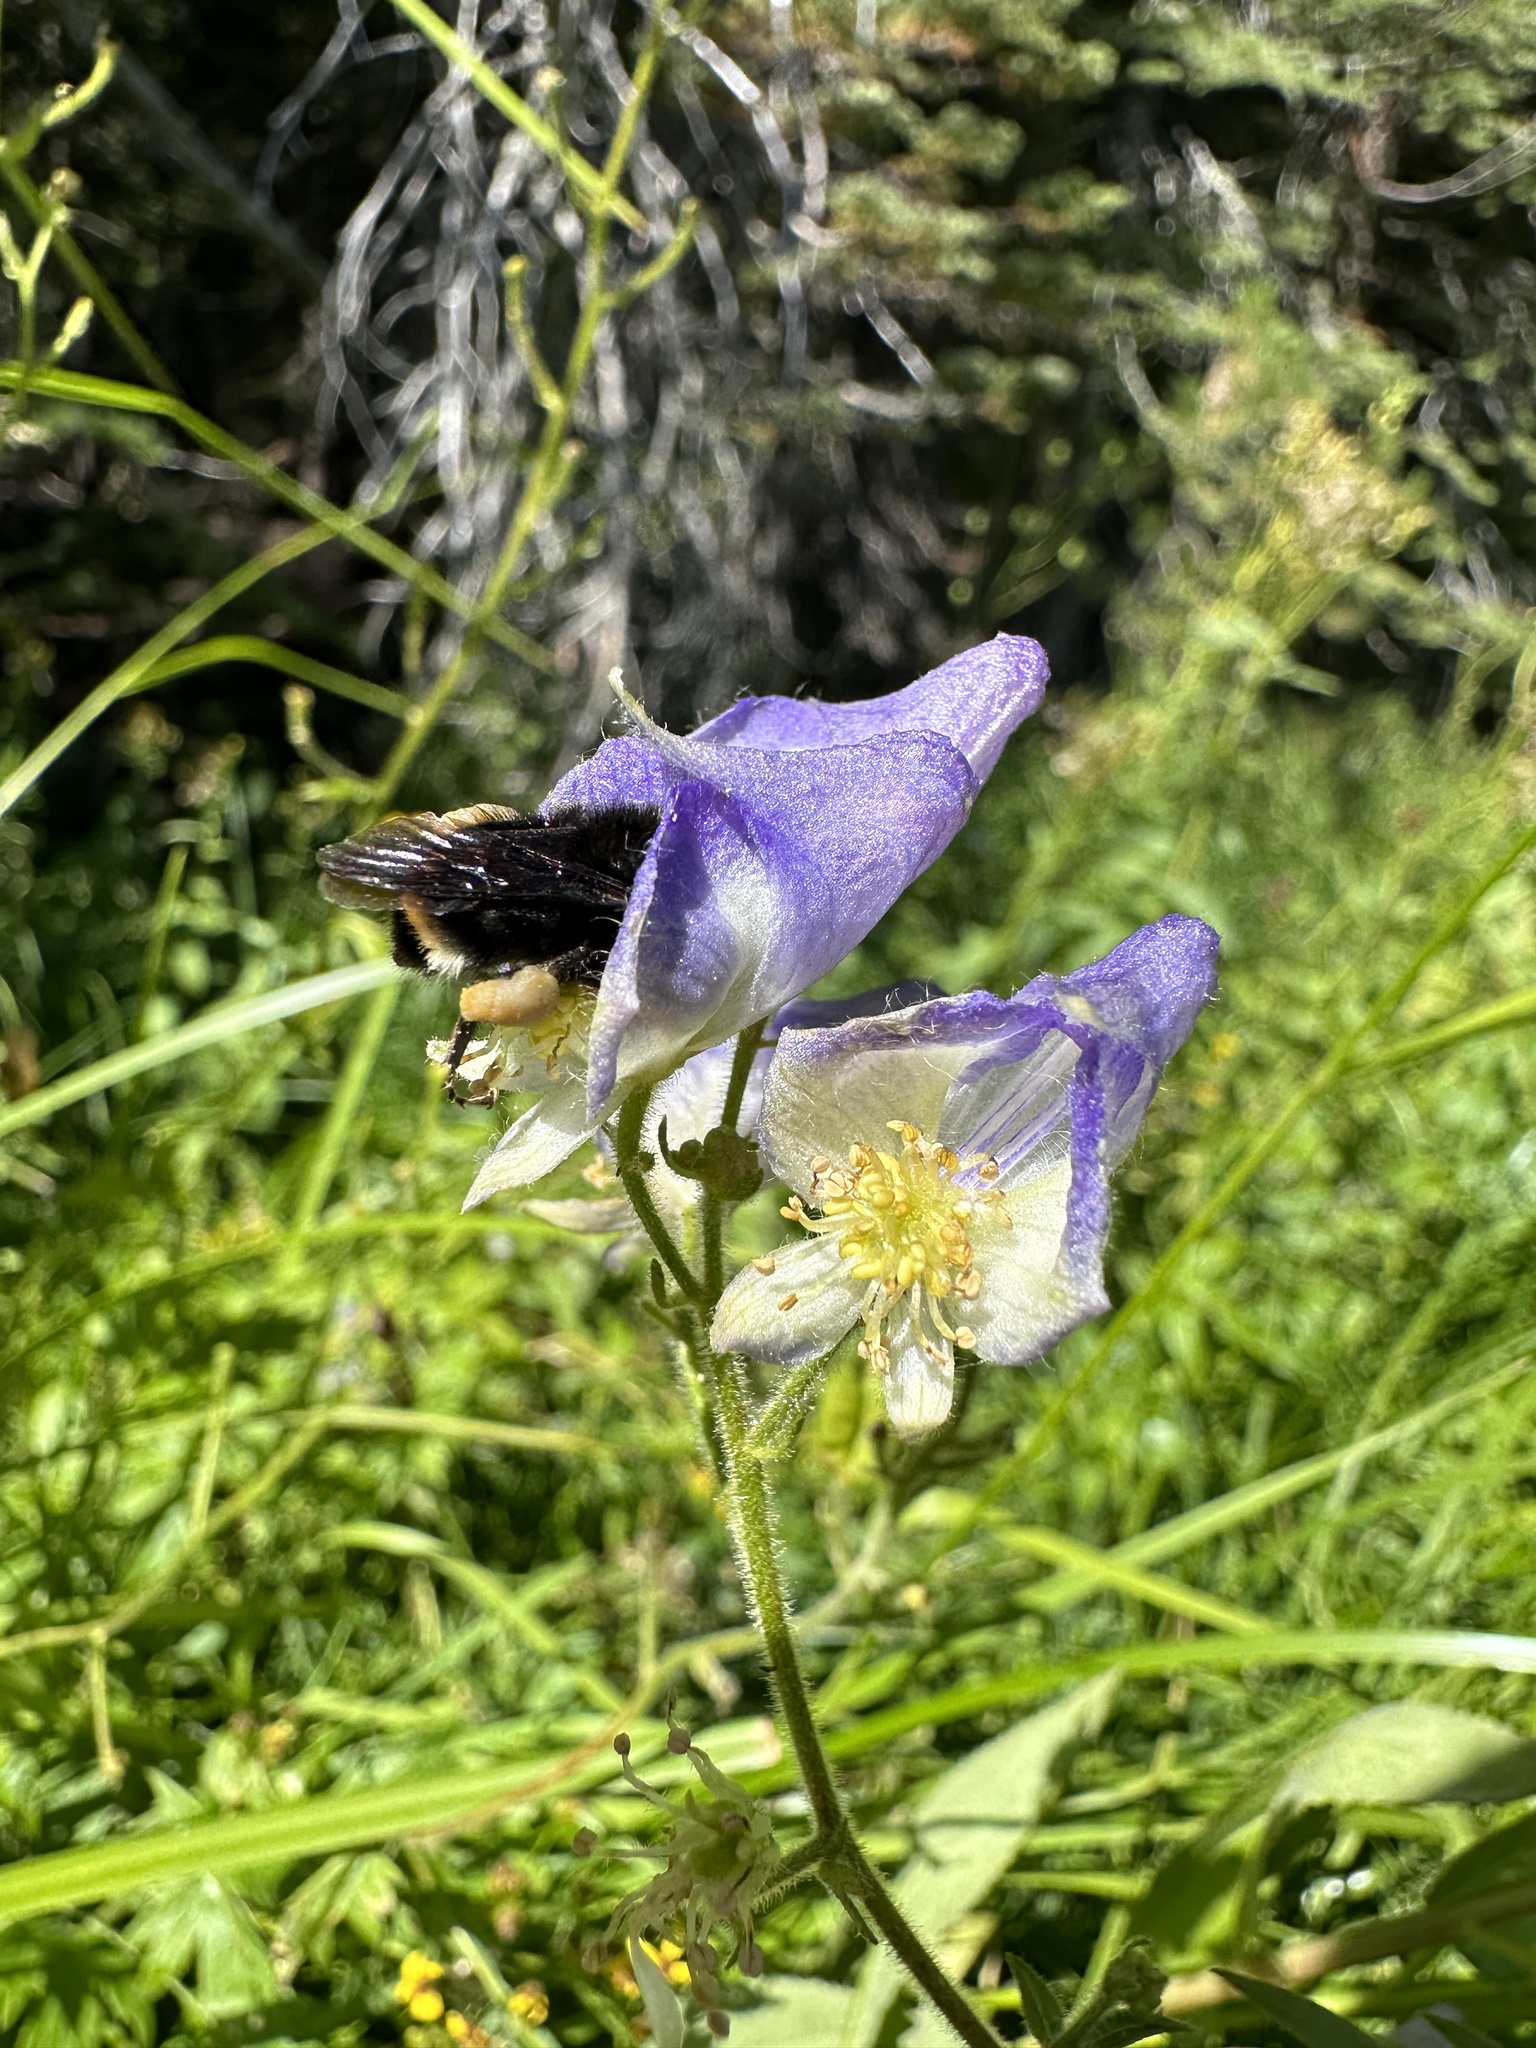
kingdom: Plantae
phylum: Tracheophyta
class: Magnoliopsida
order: Ranunculales
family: Ranunculaceae
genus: Aconitum
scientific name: Aconitum columbianum
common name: Columbia aconite
